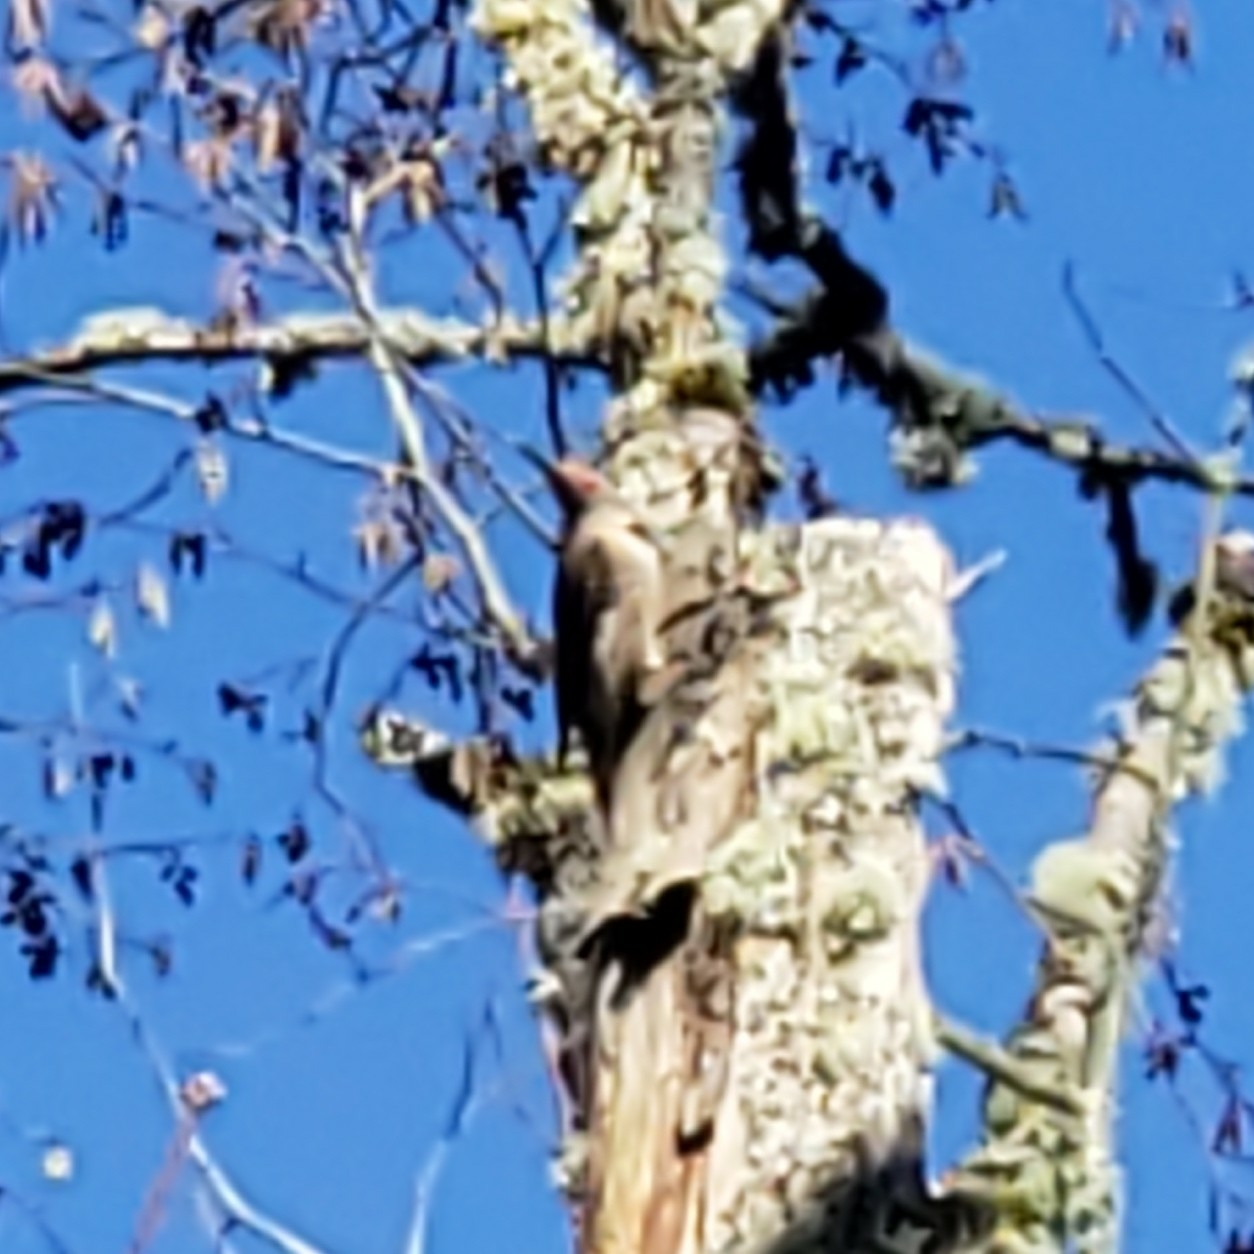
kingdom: Animalia
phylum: Chordata
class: Aves
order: Piciformes
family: Picidae
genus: Colaptes
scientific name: Colaptes auratus
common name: Northern flicker
